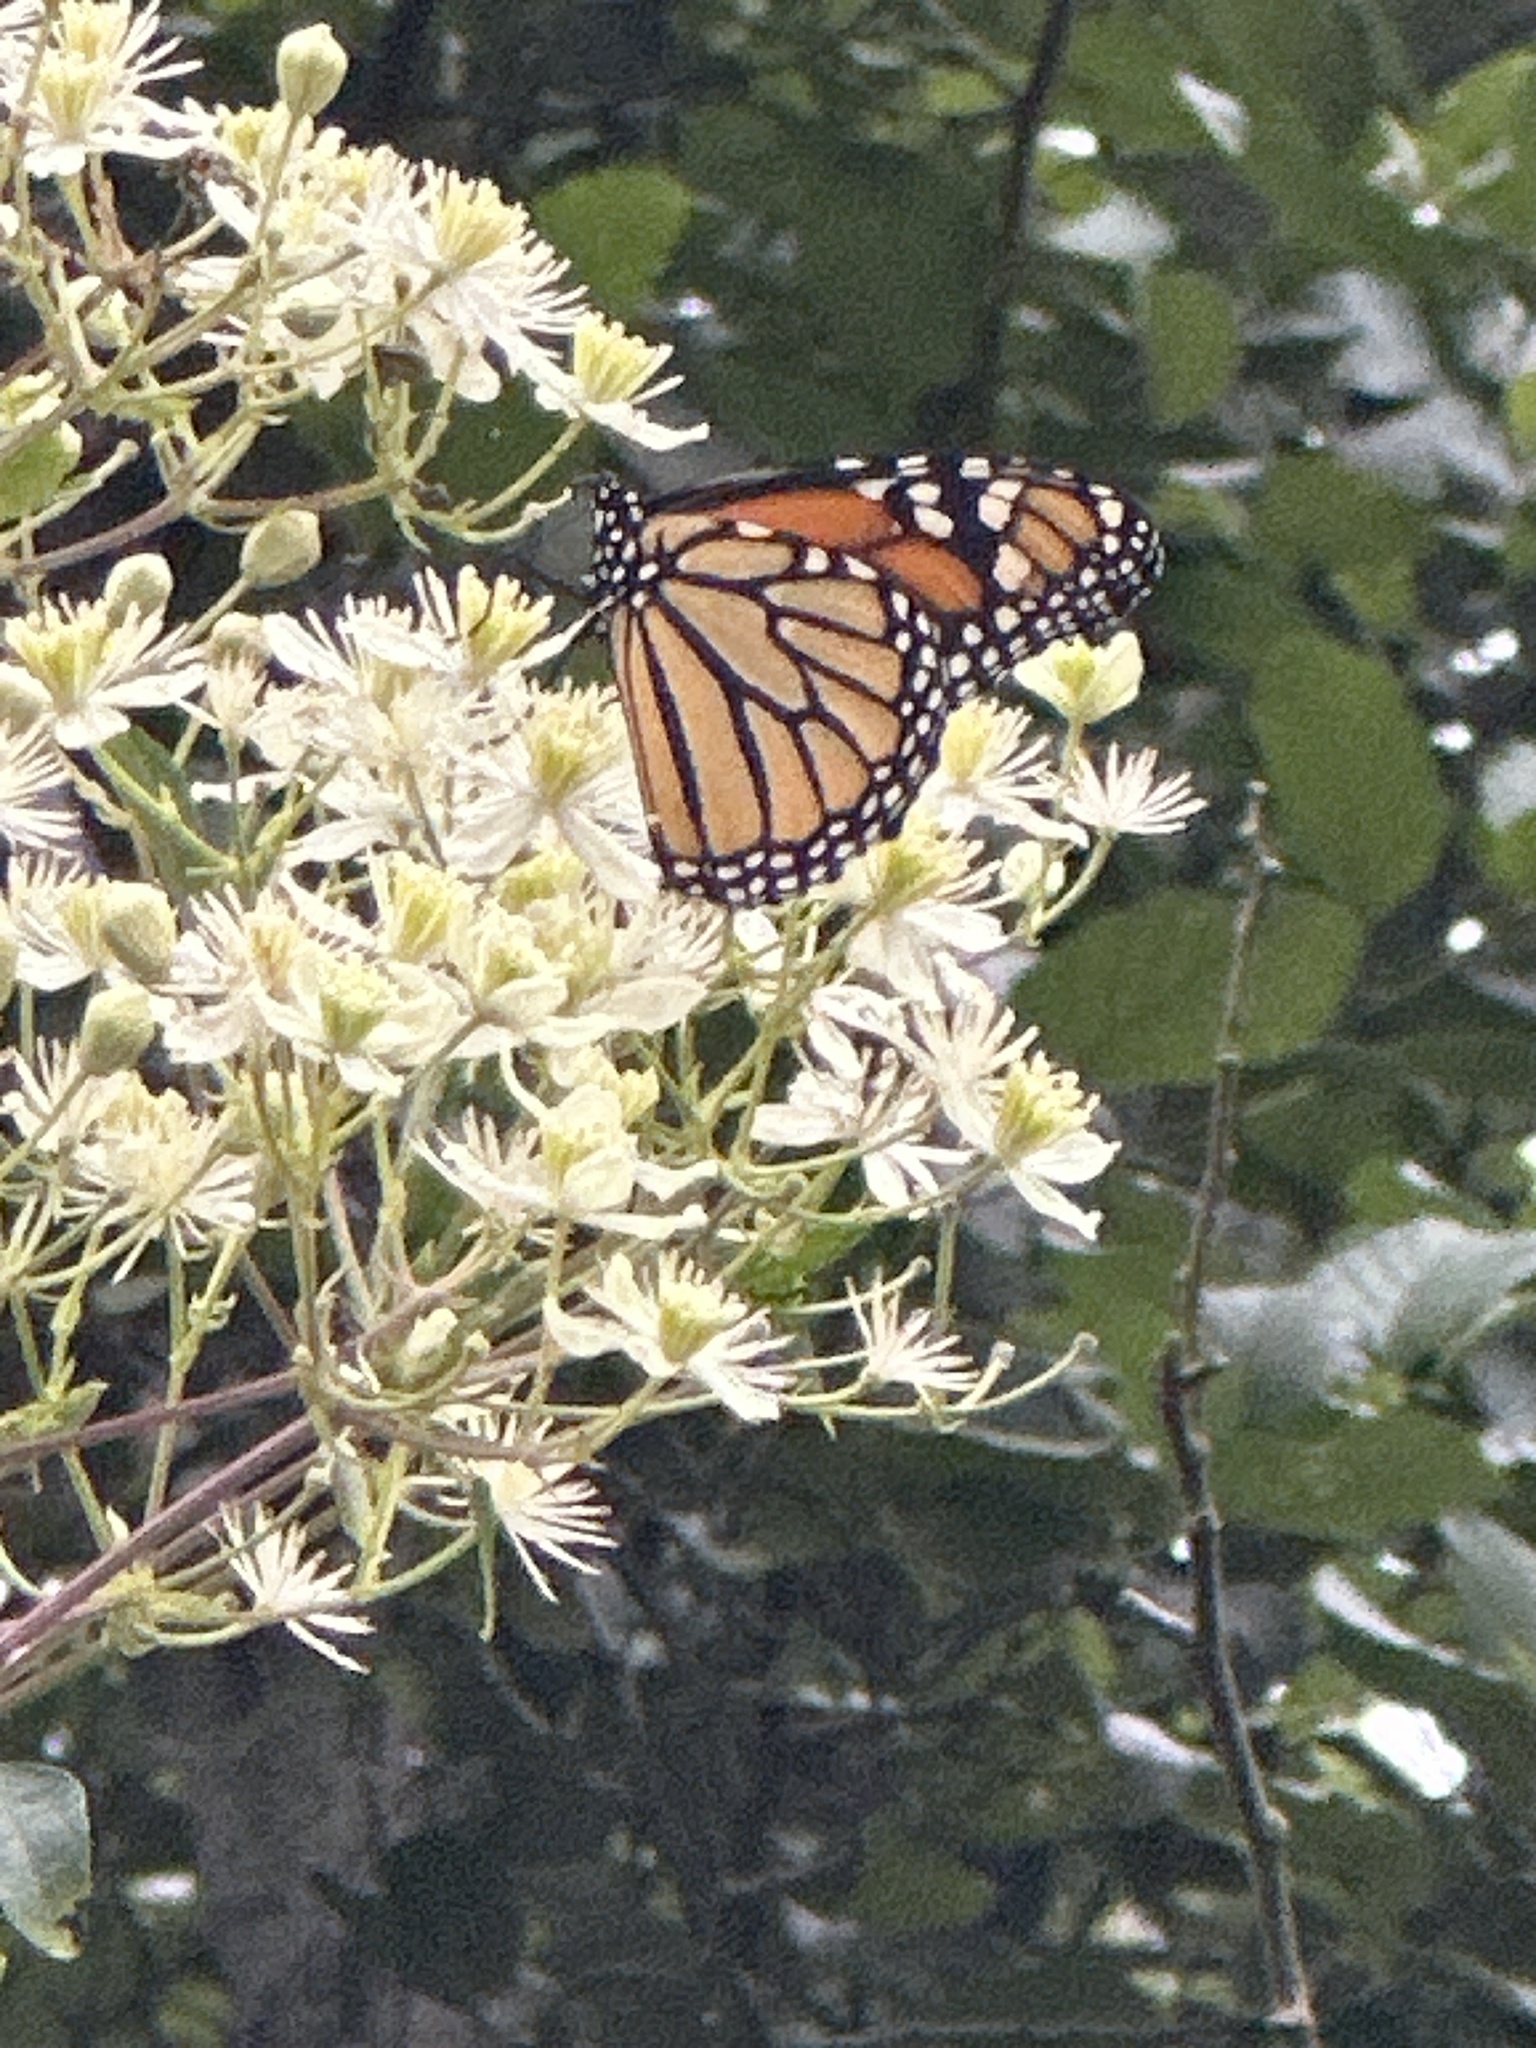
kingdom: Animalia
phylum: Arthropoda
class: Insecta
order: Lepidoptera
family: Nymphalidae
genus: Danaus
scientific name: Danaus plexippus
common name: Monarch
